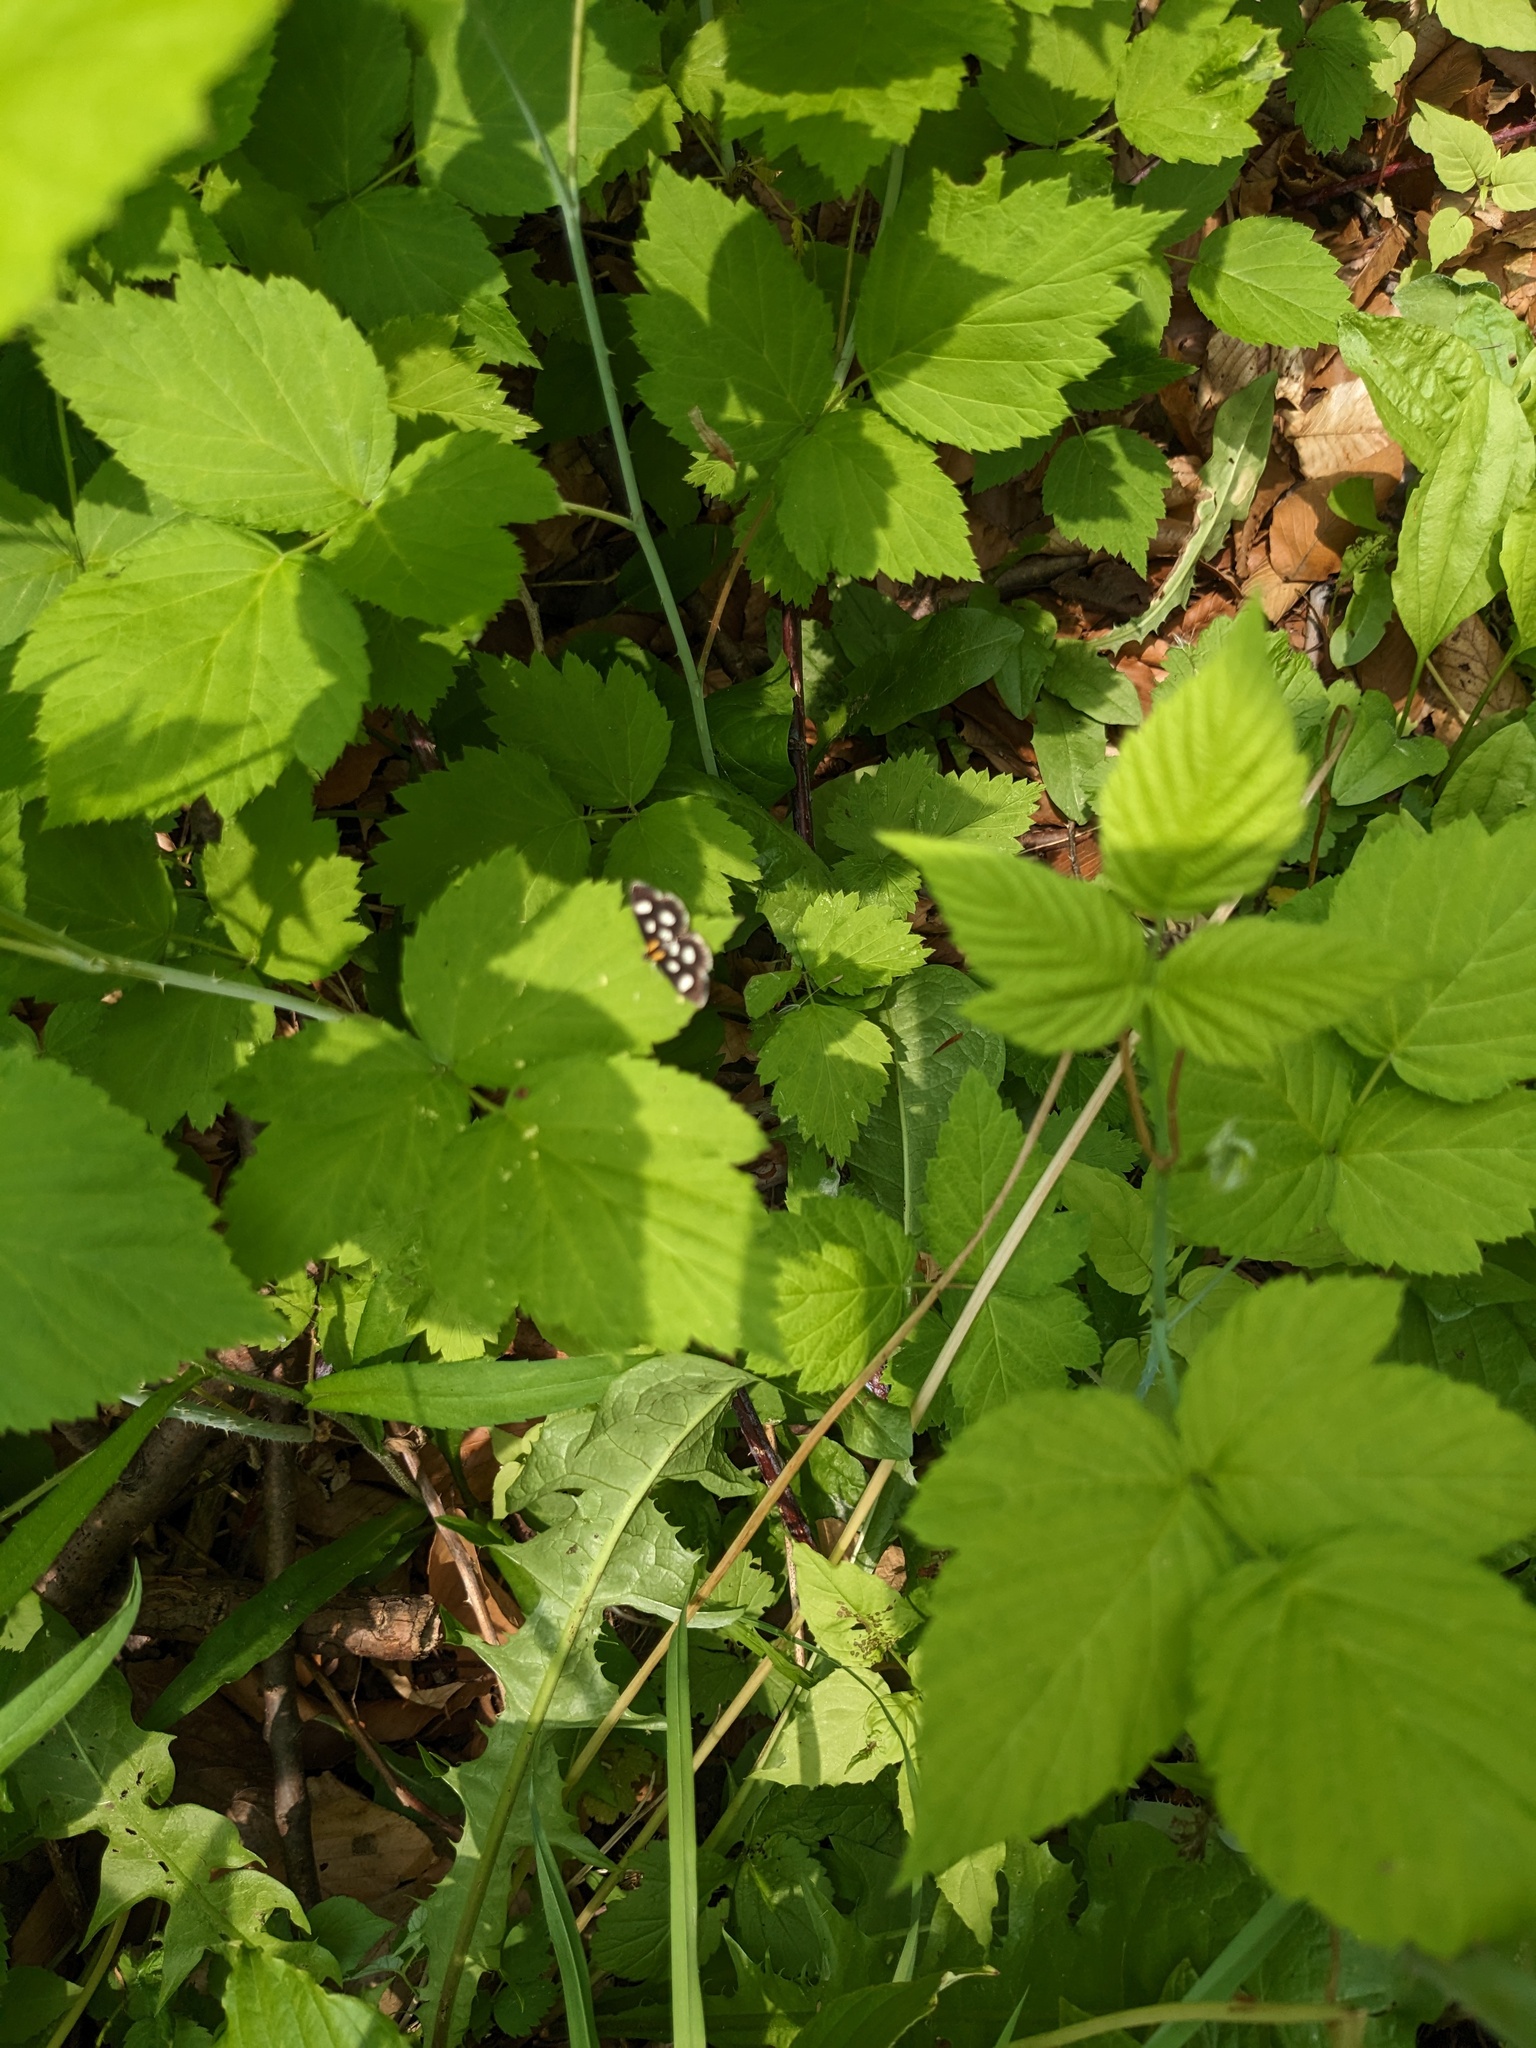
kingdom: Animalia
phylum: Arthropoda
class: Insecta
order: Lepidoptera
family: Crambidae
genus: Anania
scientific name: Anania funebris
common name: White-spotted sable moth
